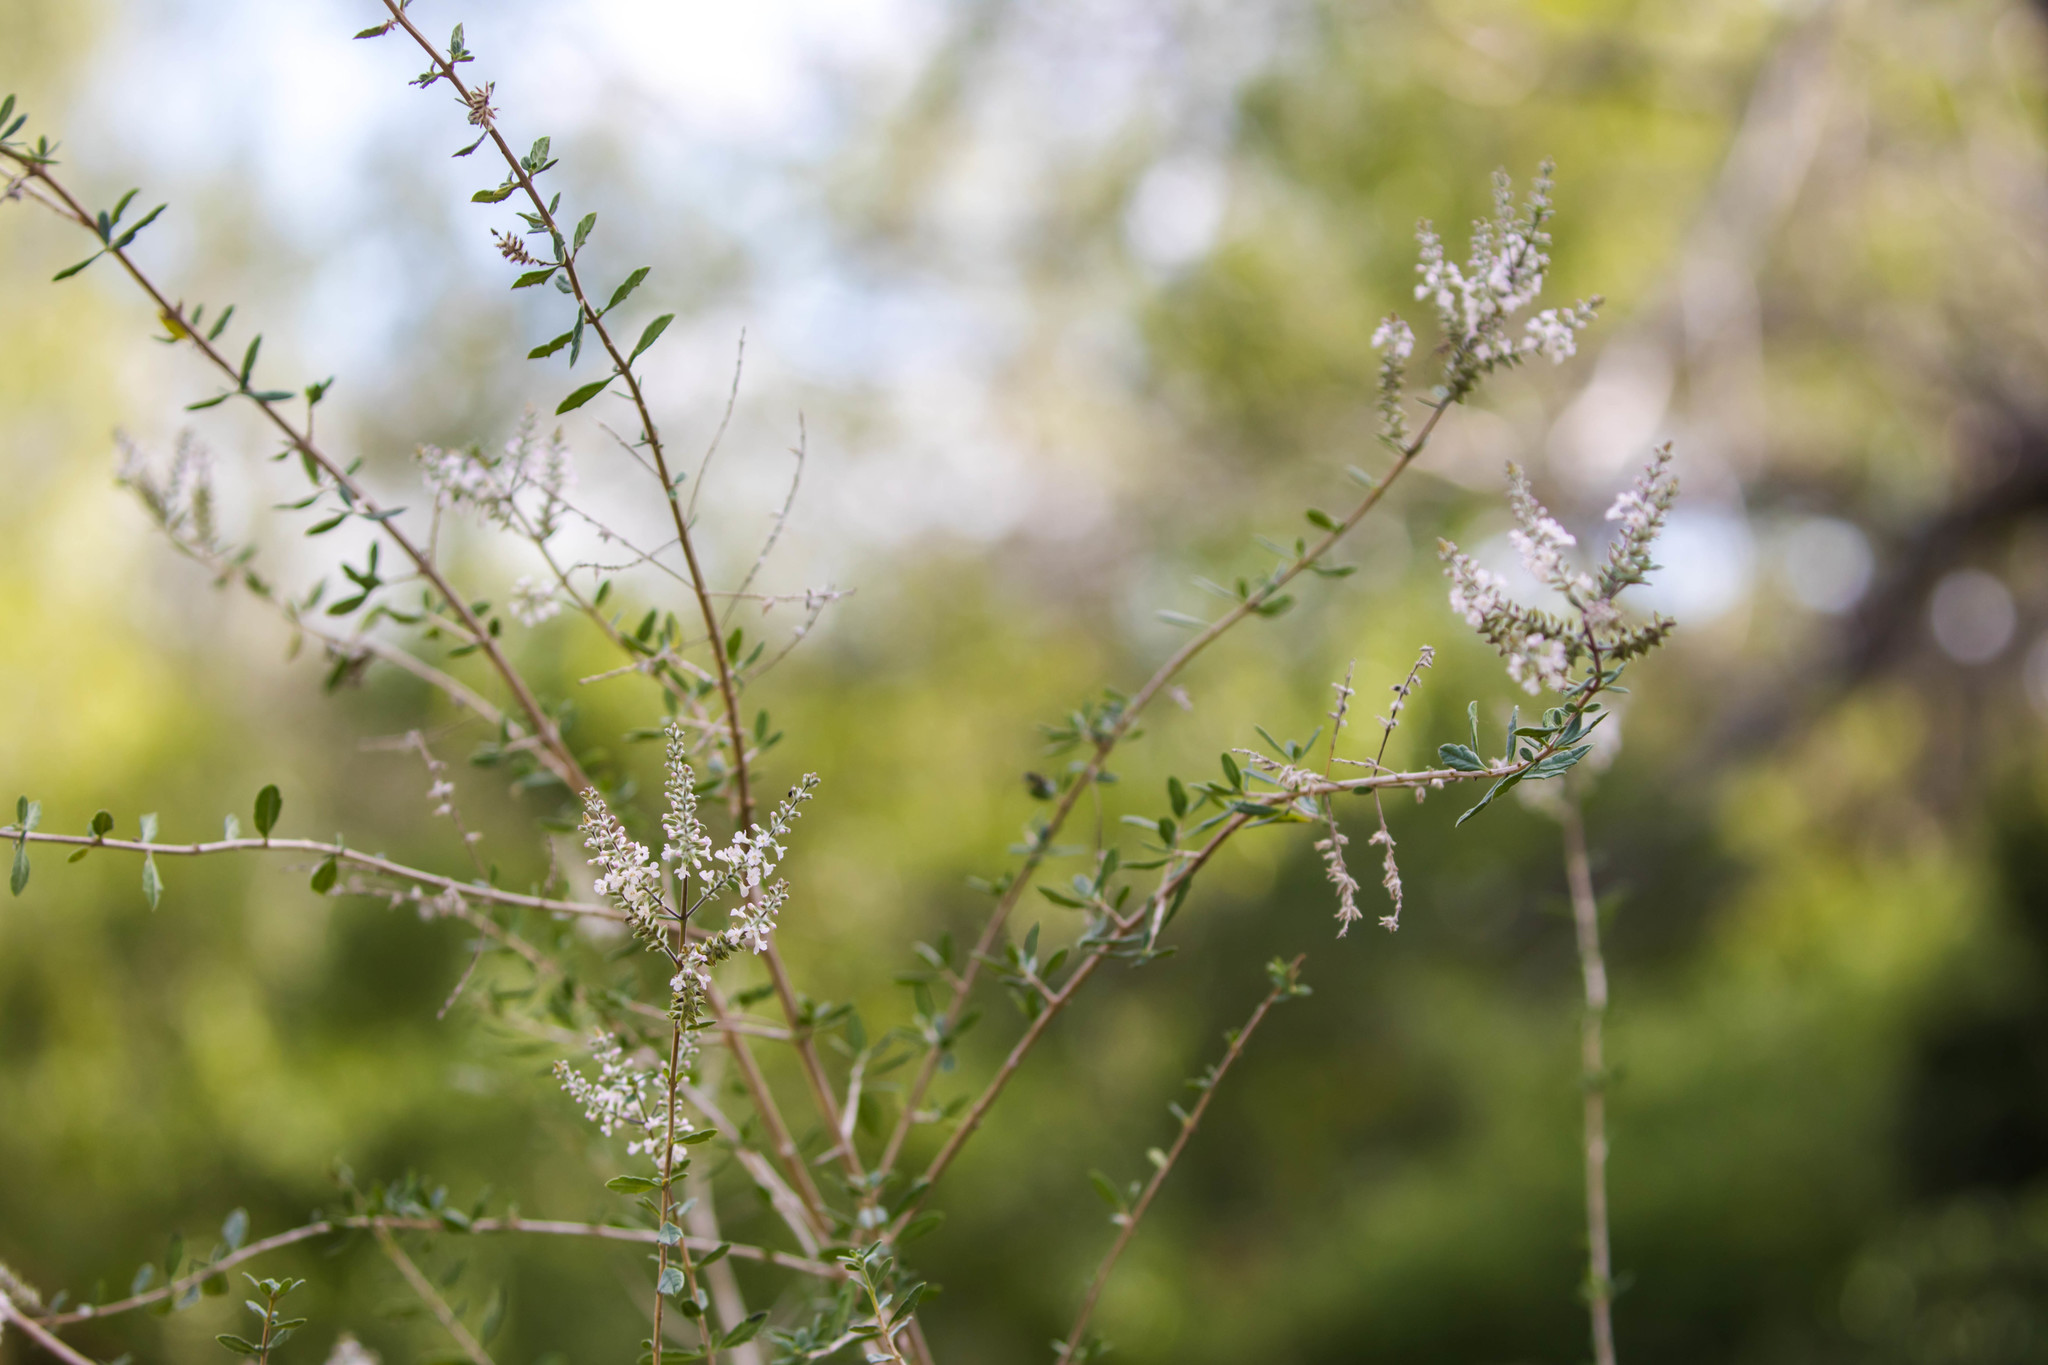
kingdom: Plantae
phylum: Tracheophyta
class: Magnoliopsida
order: Lamiales
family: Verbenaceae
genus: Aloysia
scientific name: Aloysia gratissima
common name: Common bee-brush
